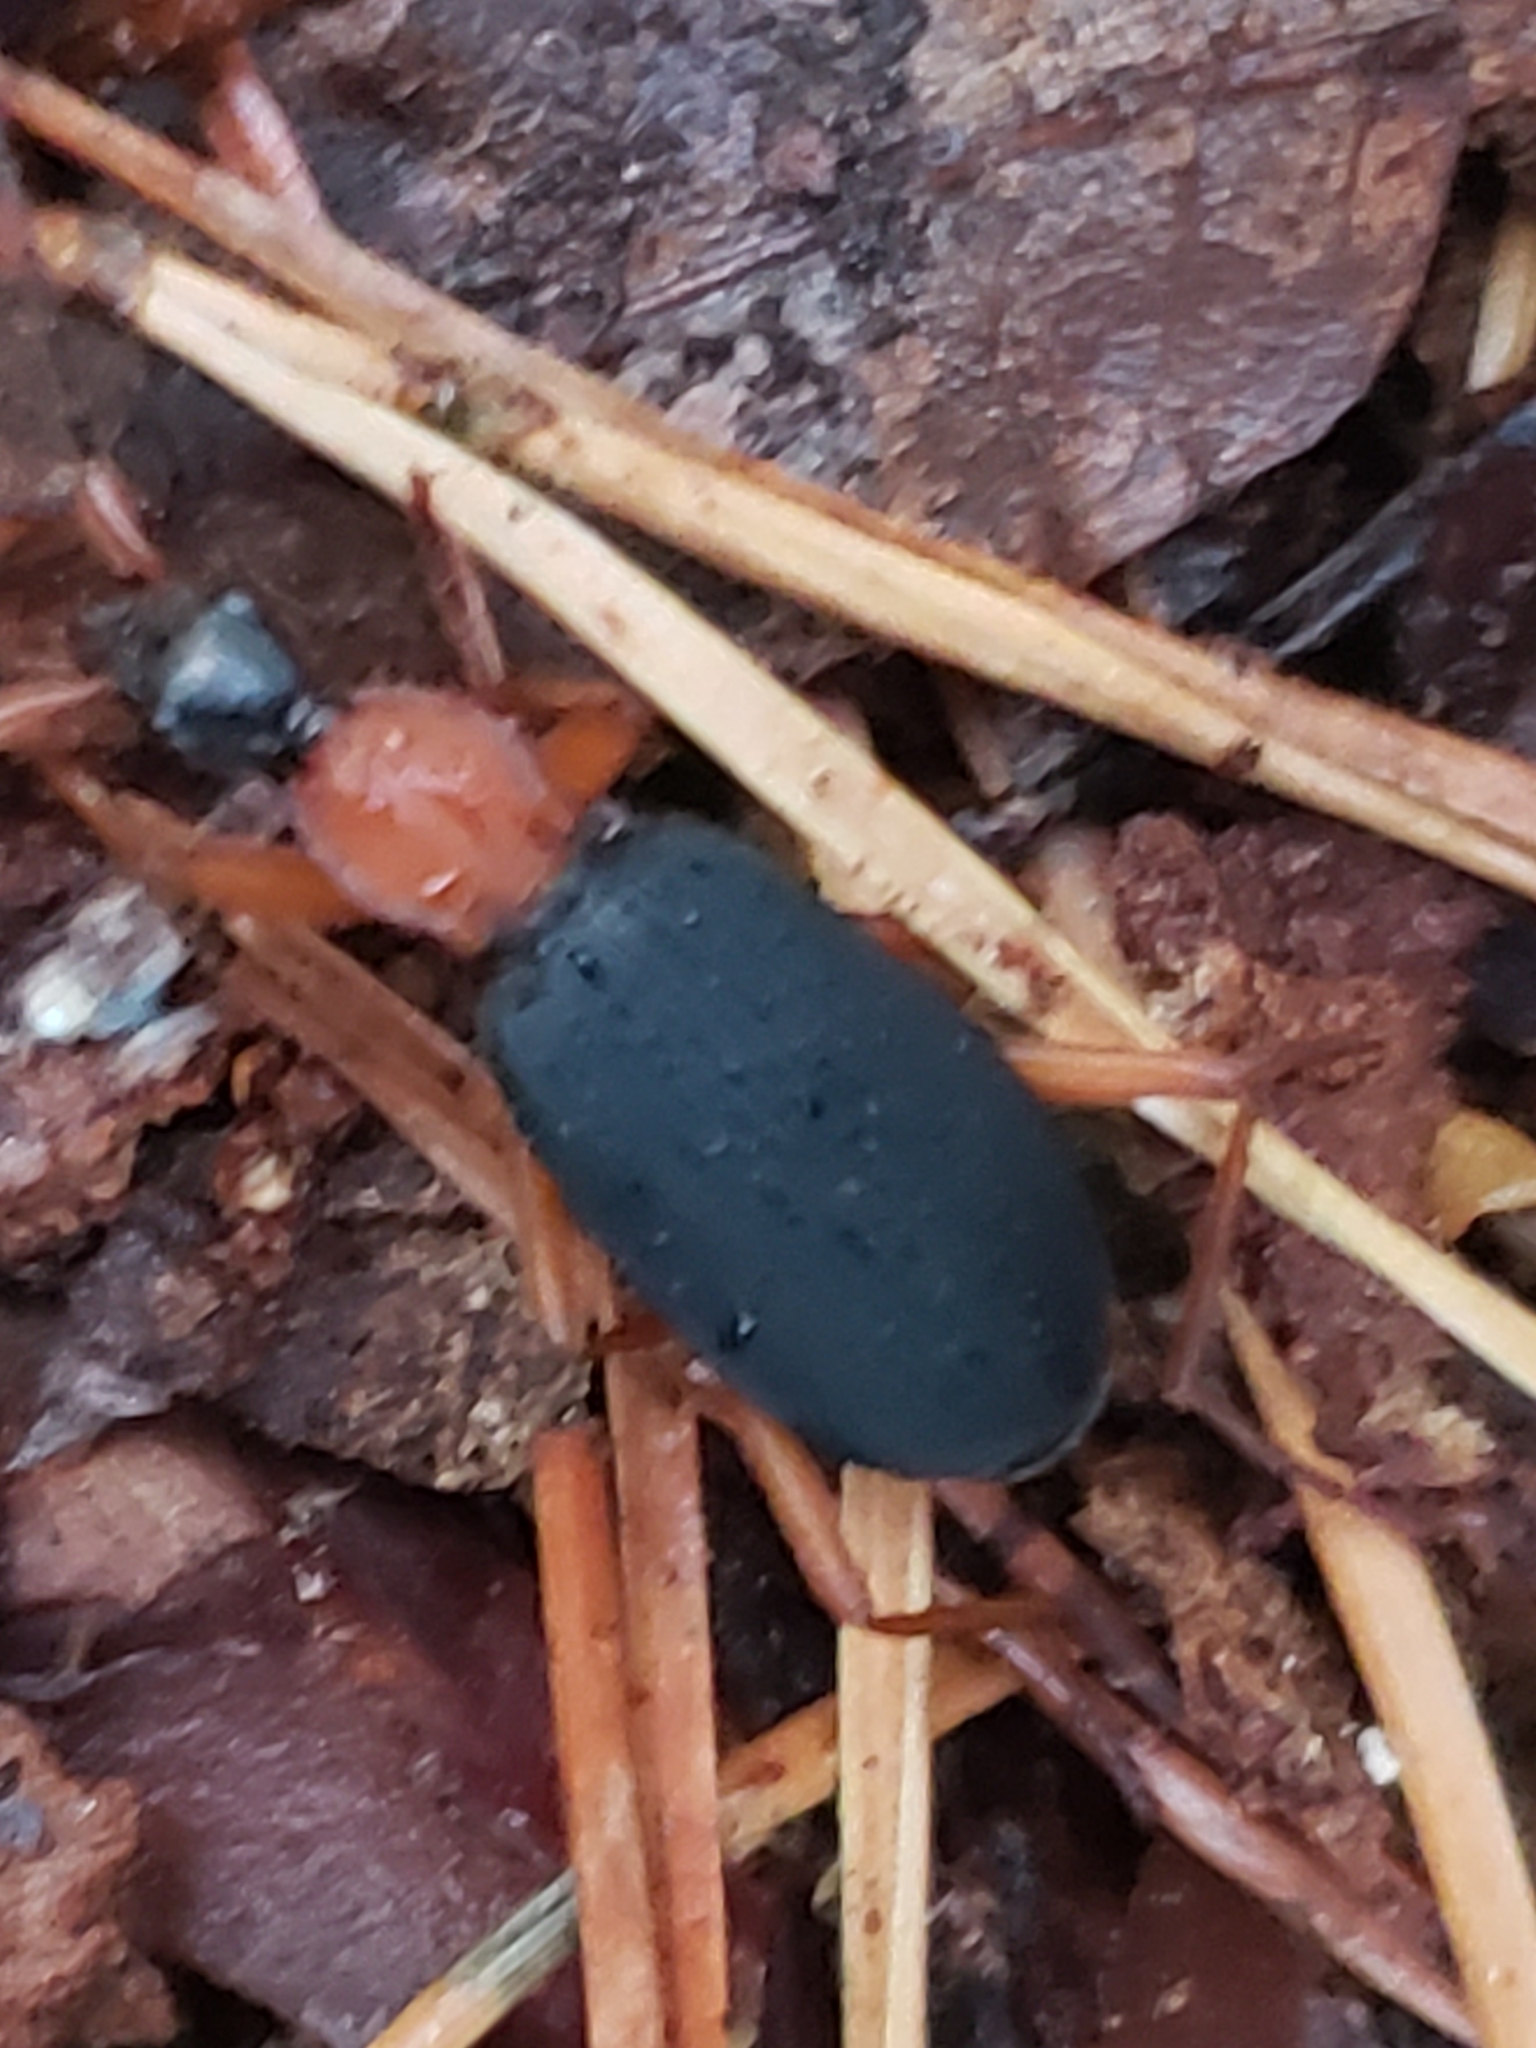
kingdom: Animalia
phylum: Arthropoda
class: Insecta
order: Coleoptera
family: Carabidae
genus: Galerita
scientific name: Galerita bicolor
